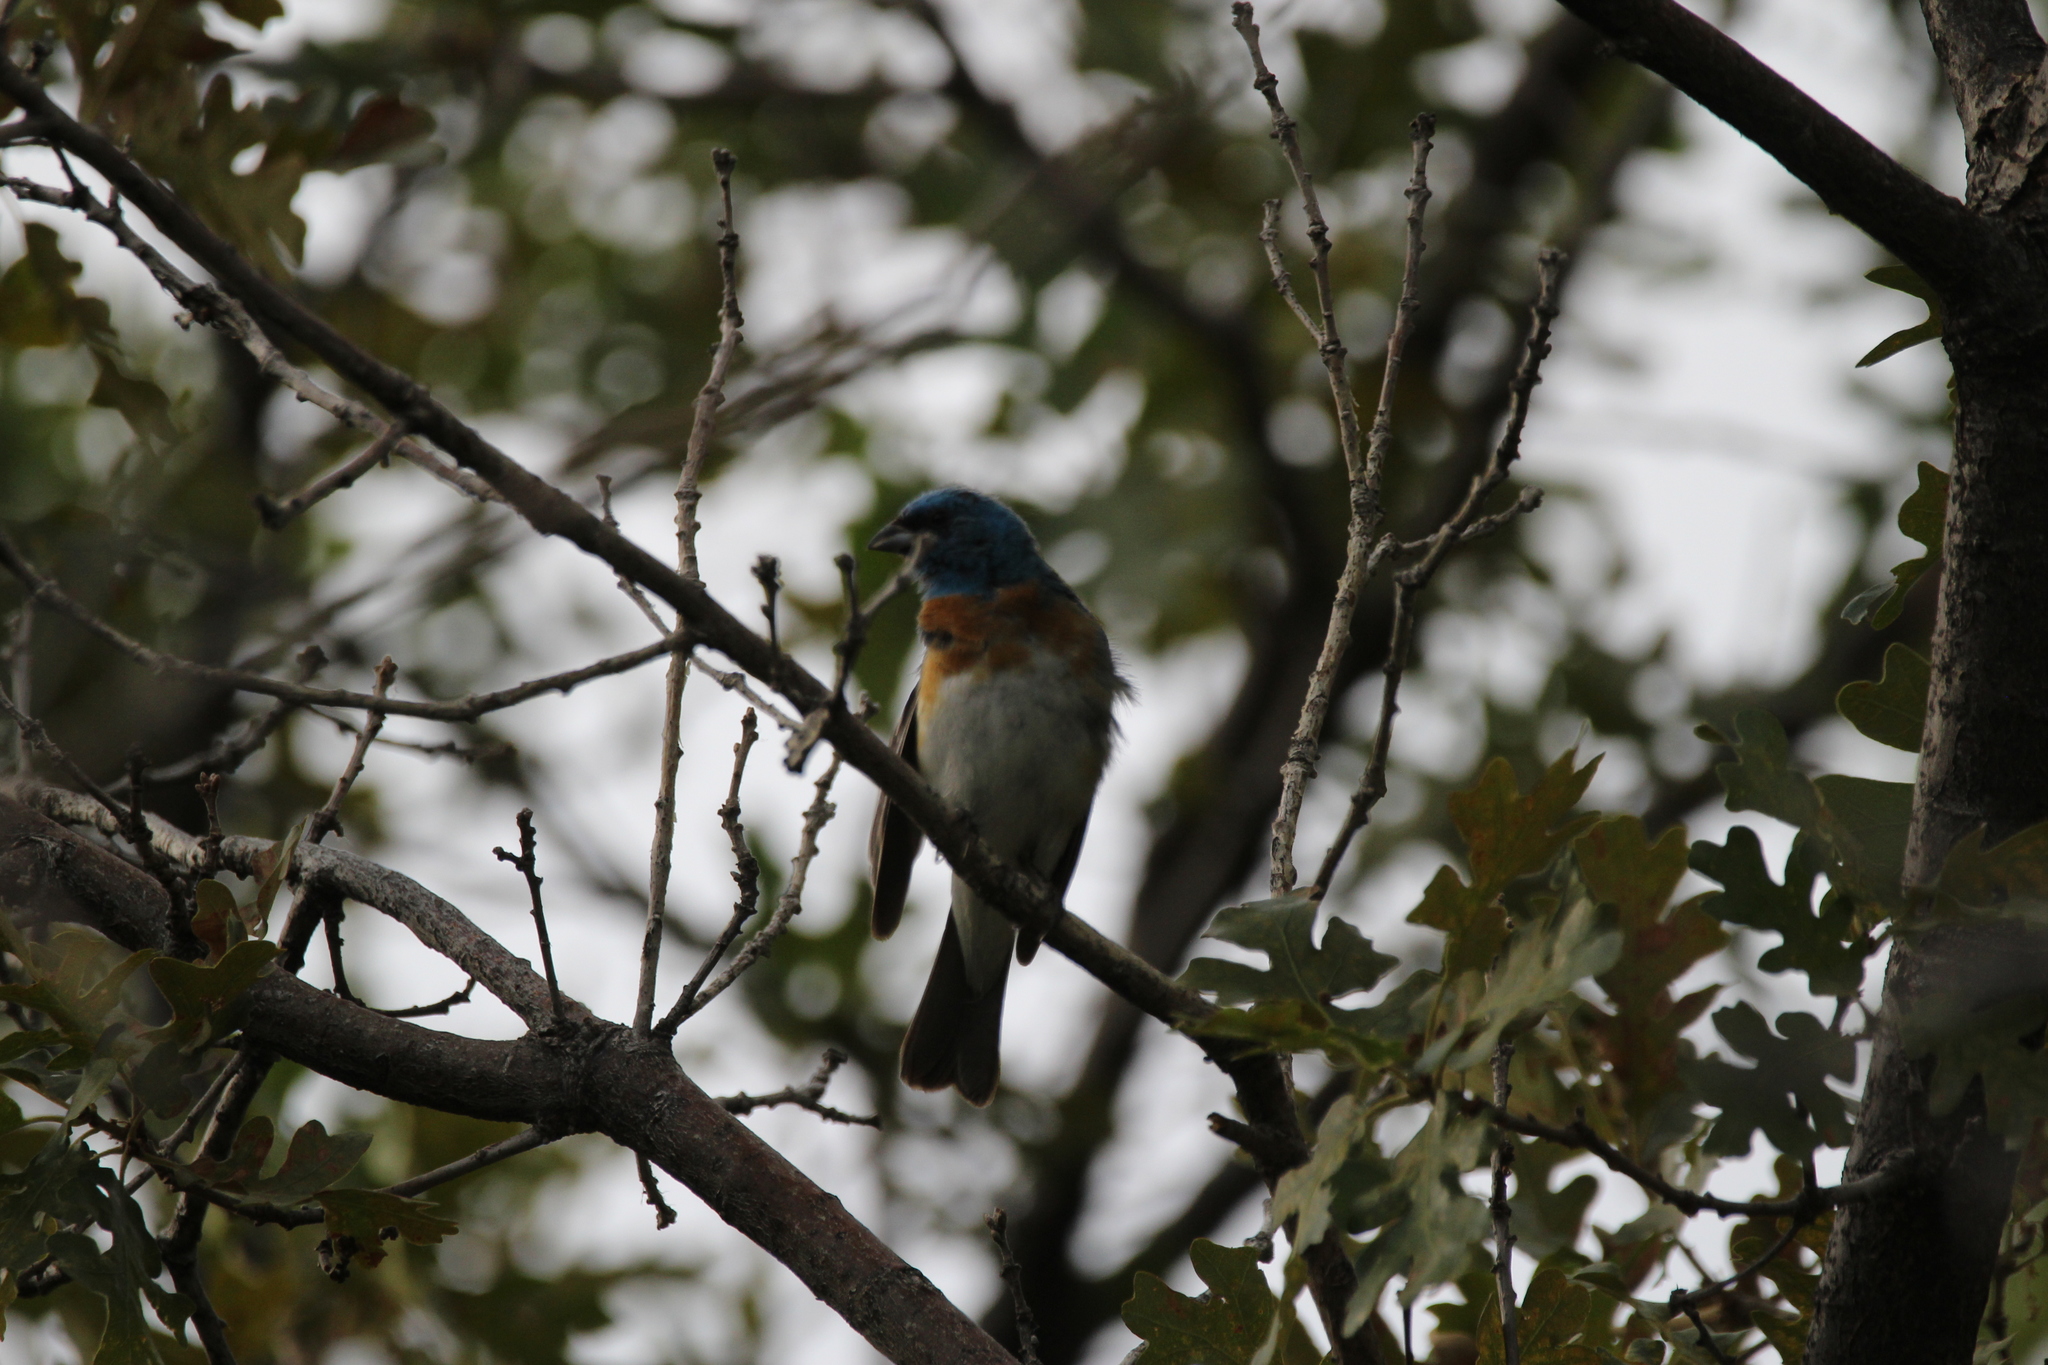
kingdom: Animalia
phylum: Chordata
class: Aves
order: Passeriformes
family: Cardinalidae
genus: Passerina
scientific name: Passerina amoena
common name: Lazuli bunting
